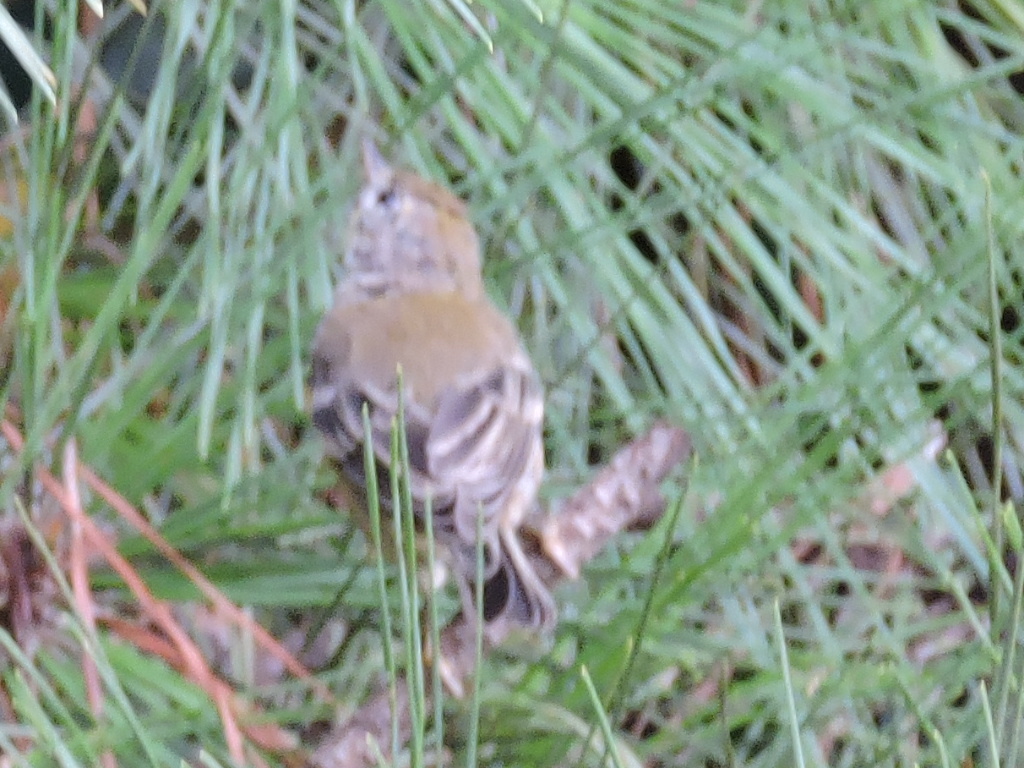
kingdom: Animalia
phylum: Chordata
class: Aves
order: Passeriformes
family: Parulidae
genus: Setophaga
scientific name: Setophaga pinus
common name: Pine warbler
